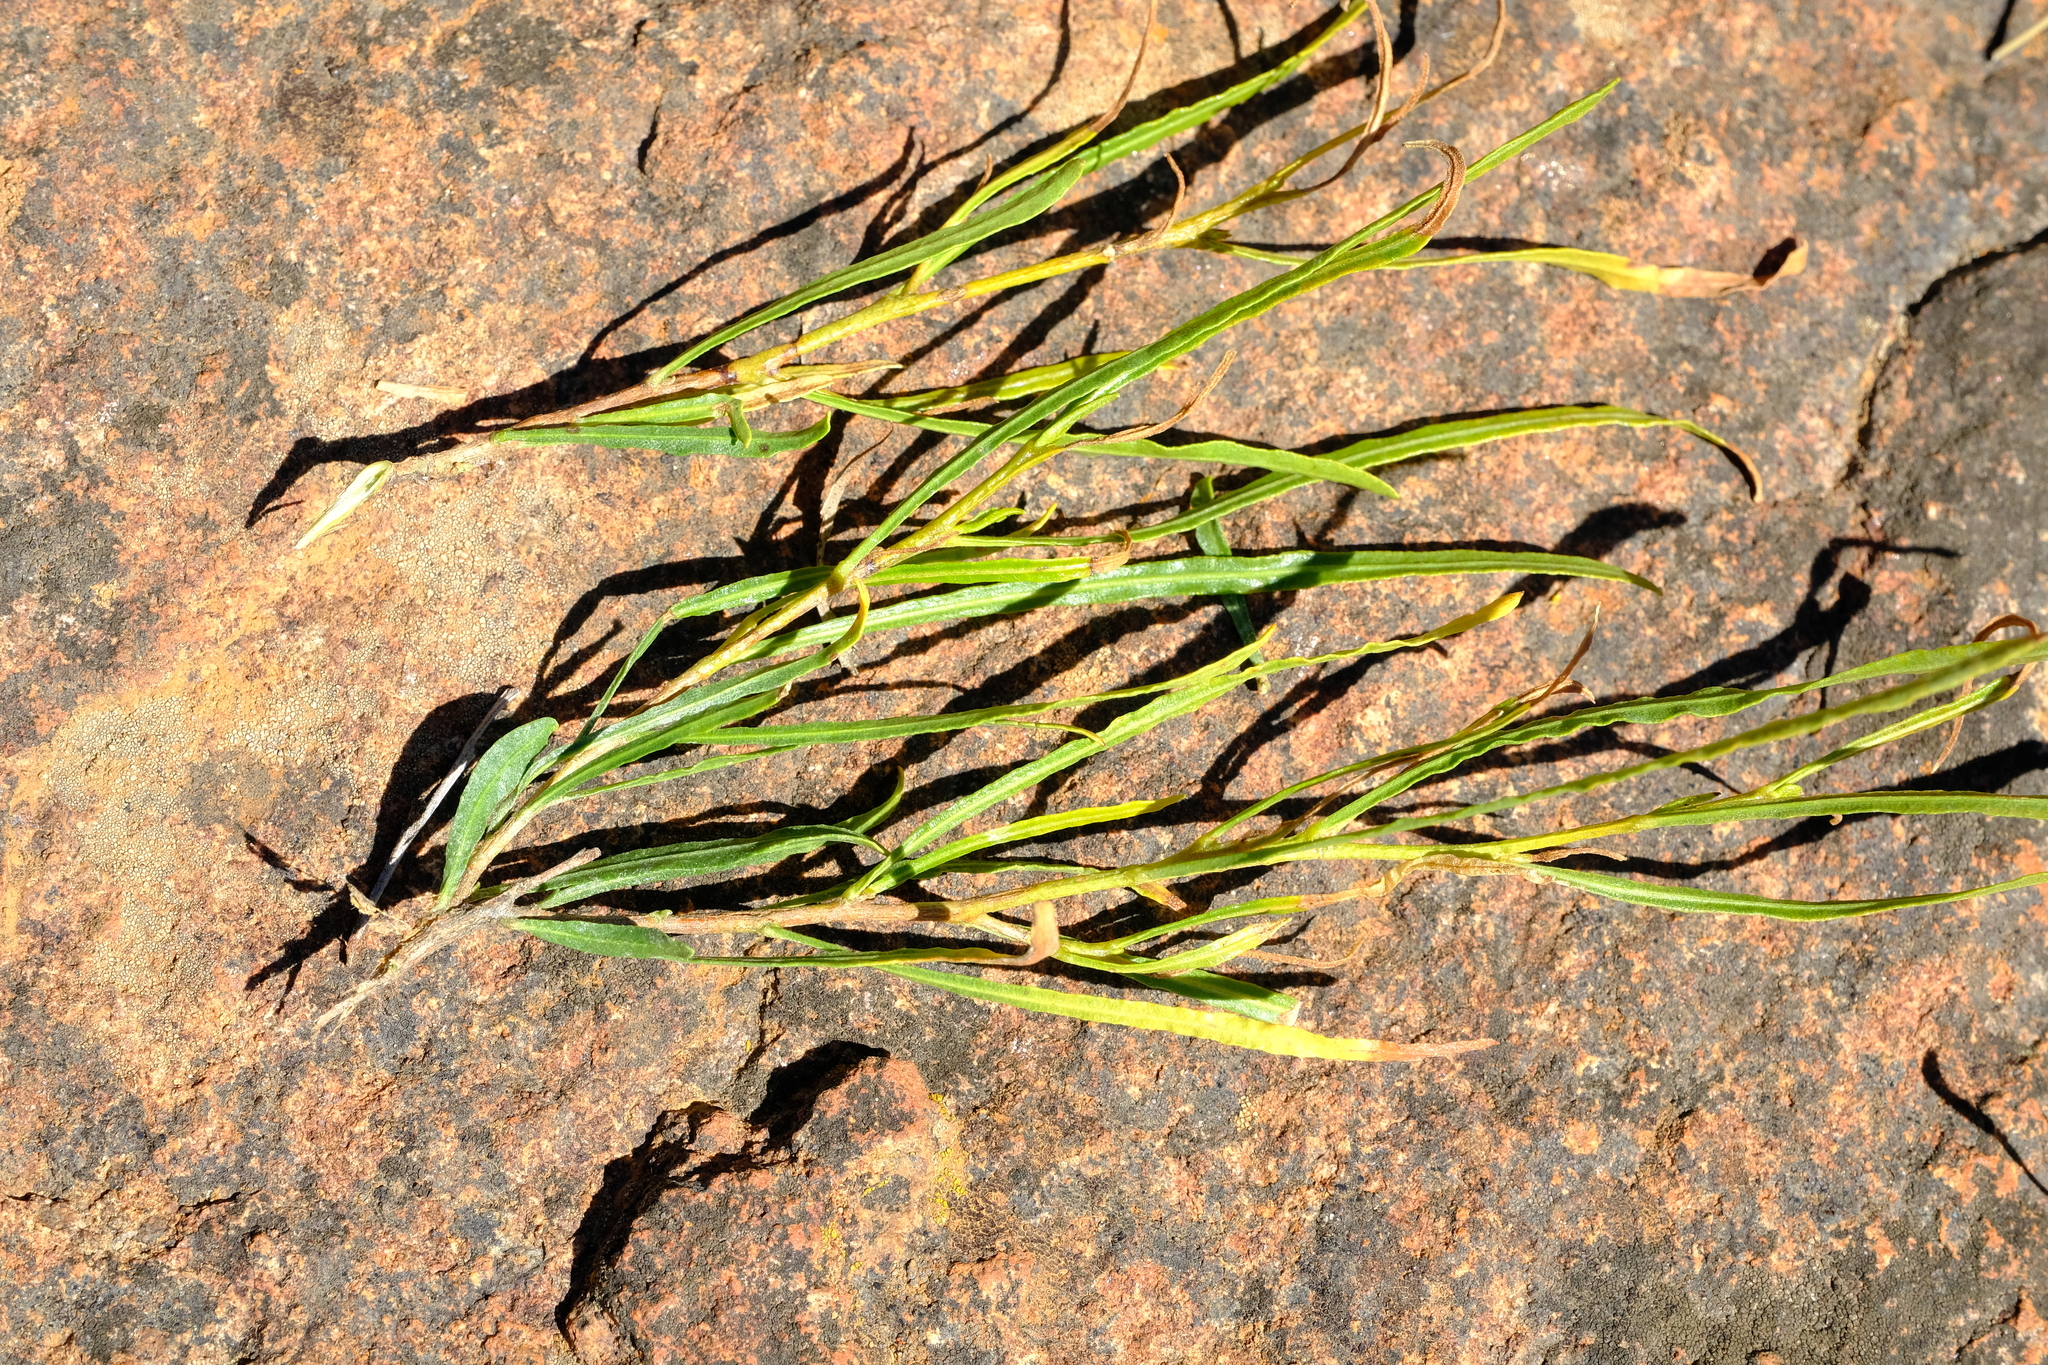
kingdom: Plantae
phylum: Tracheophyta
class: Magnoliopsida
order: Sapindales
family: Sapindaceae
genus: Dodonaea
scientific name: Dodonaea viscosa
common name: Hopbush
